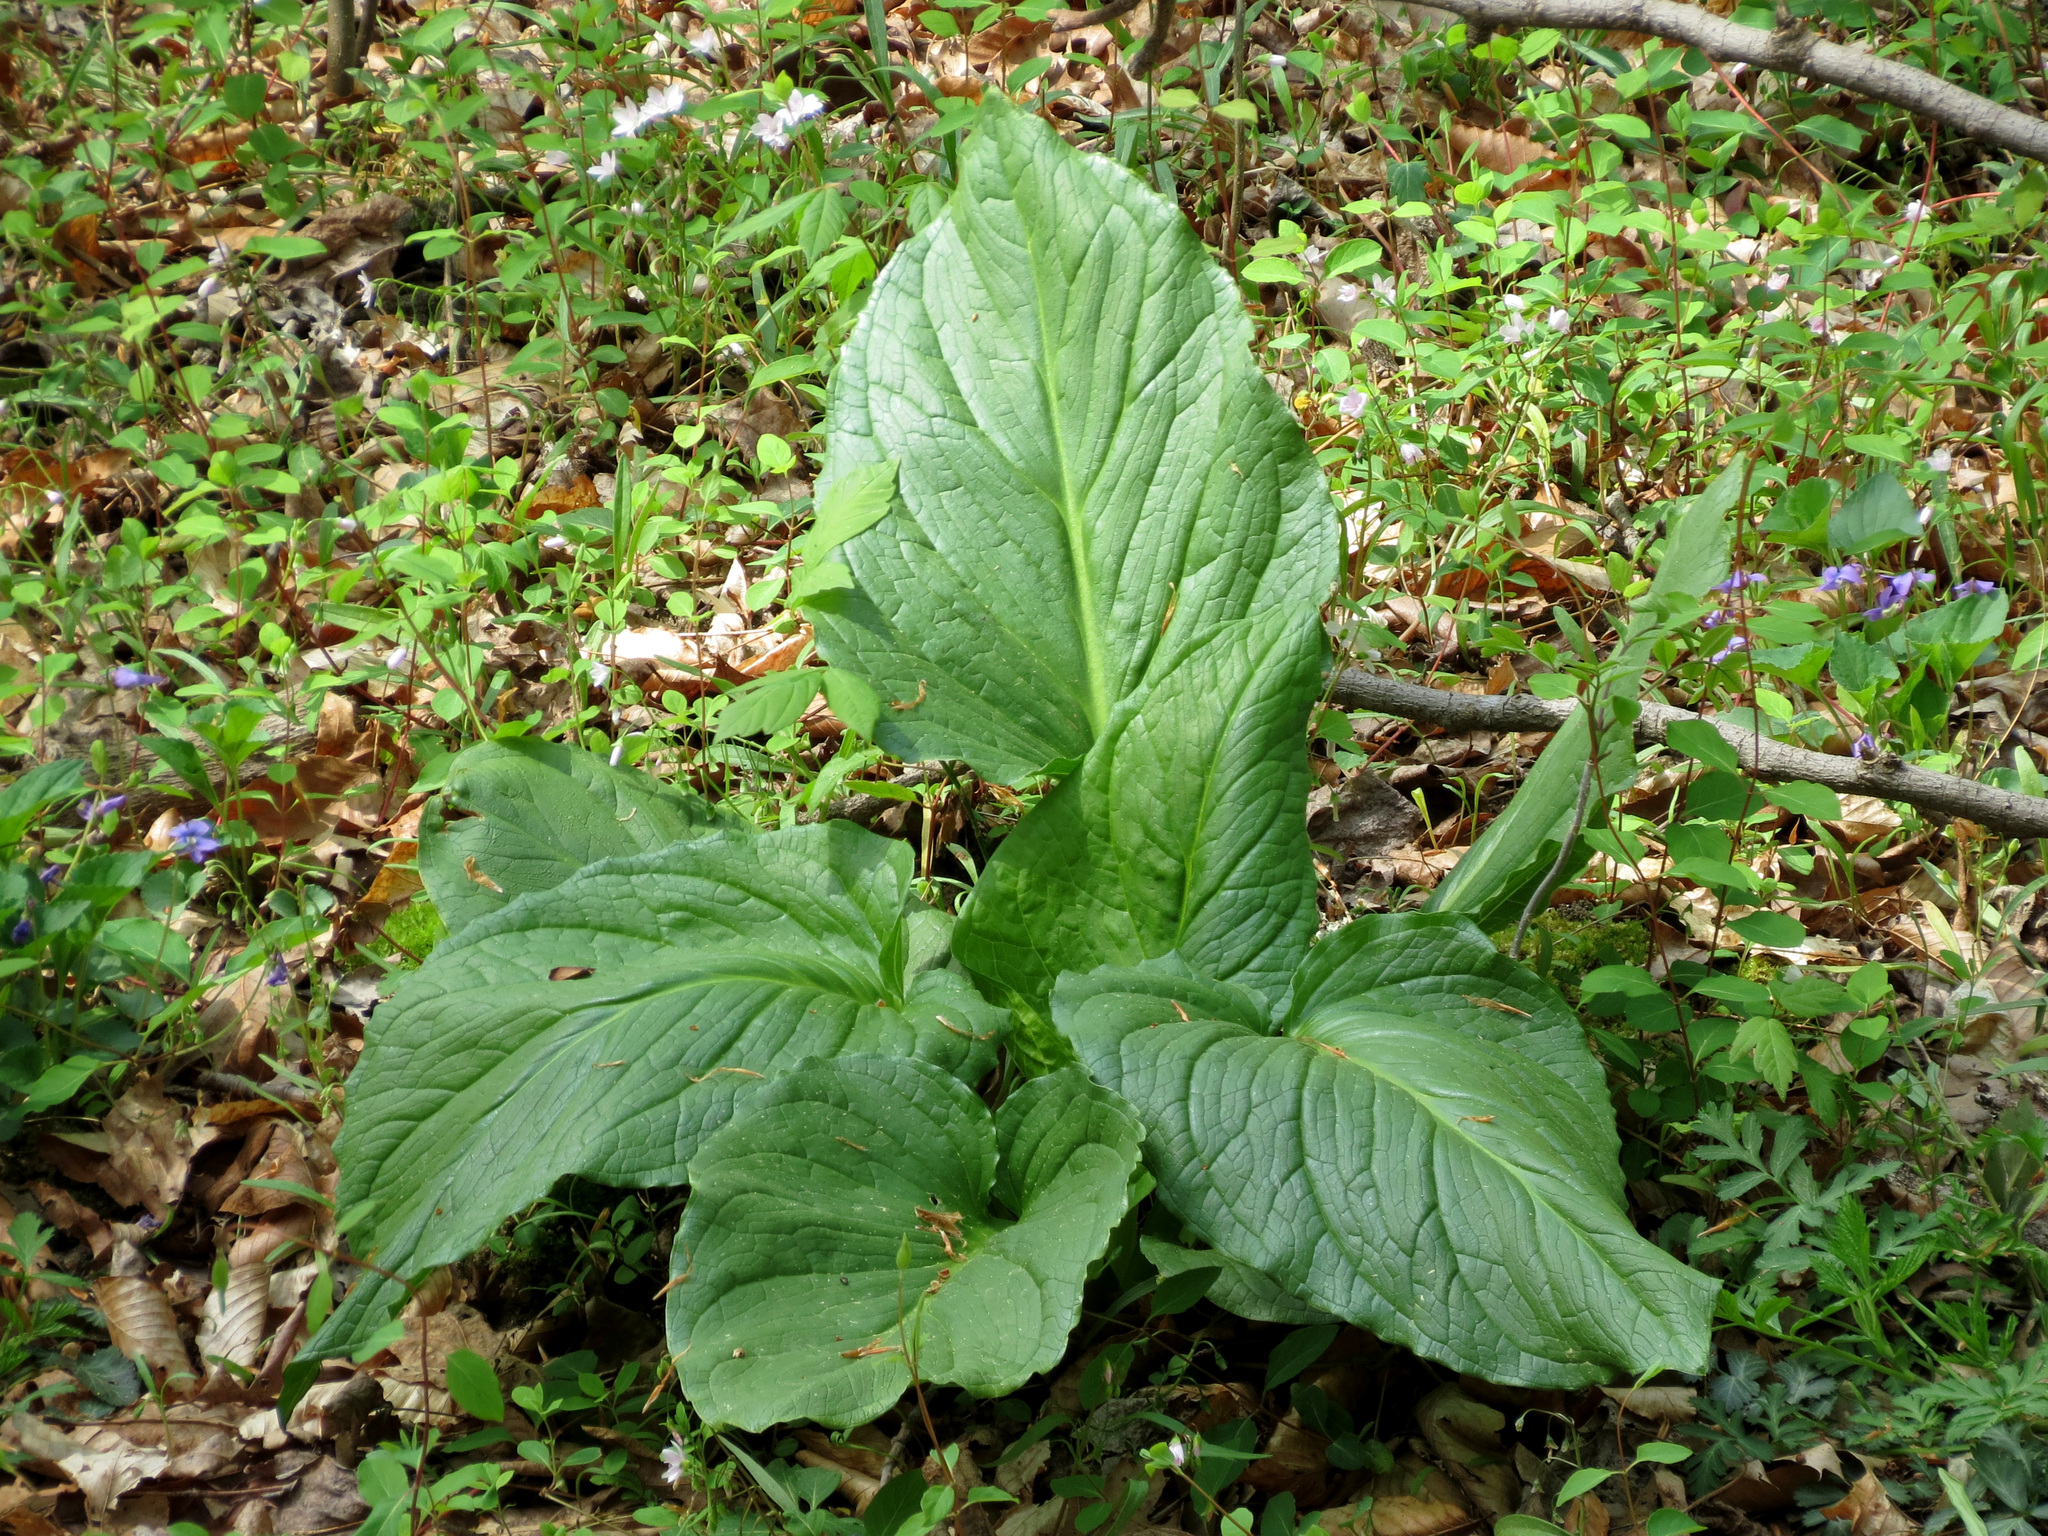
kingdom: Plantae
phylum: Tracheophyta
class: Liliopsida
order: Alismatales
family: Araceae
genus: Symplocarpus
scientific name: Symplocarpus foetidus
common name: Eastern skunk cabbage
